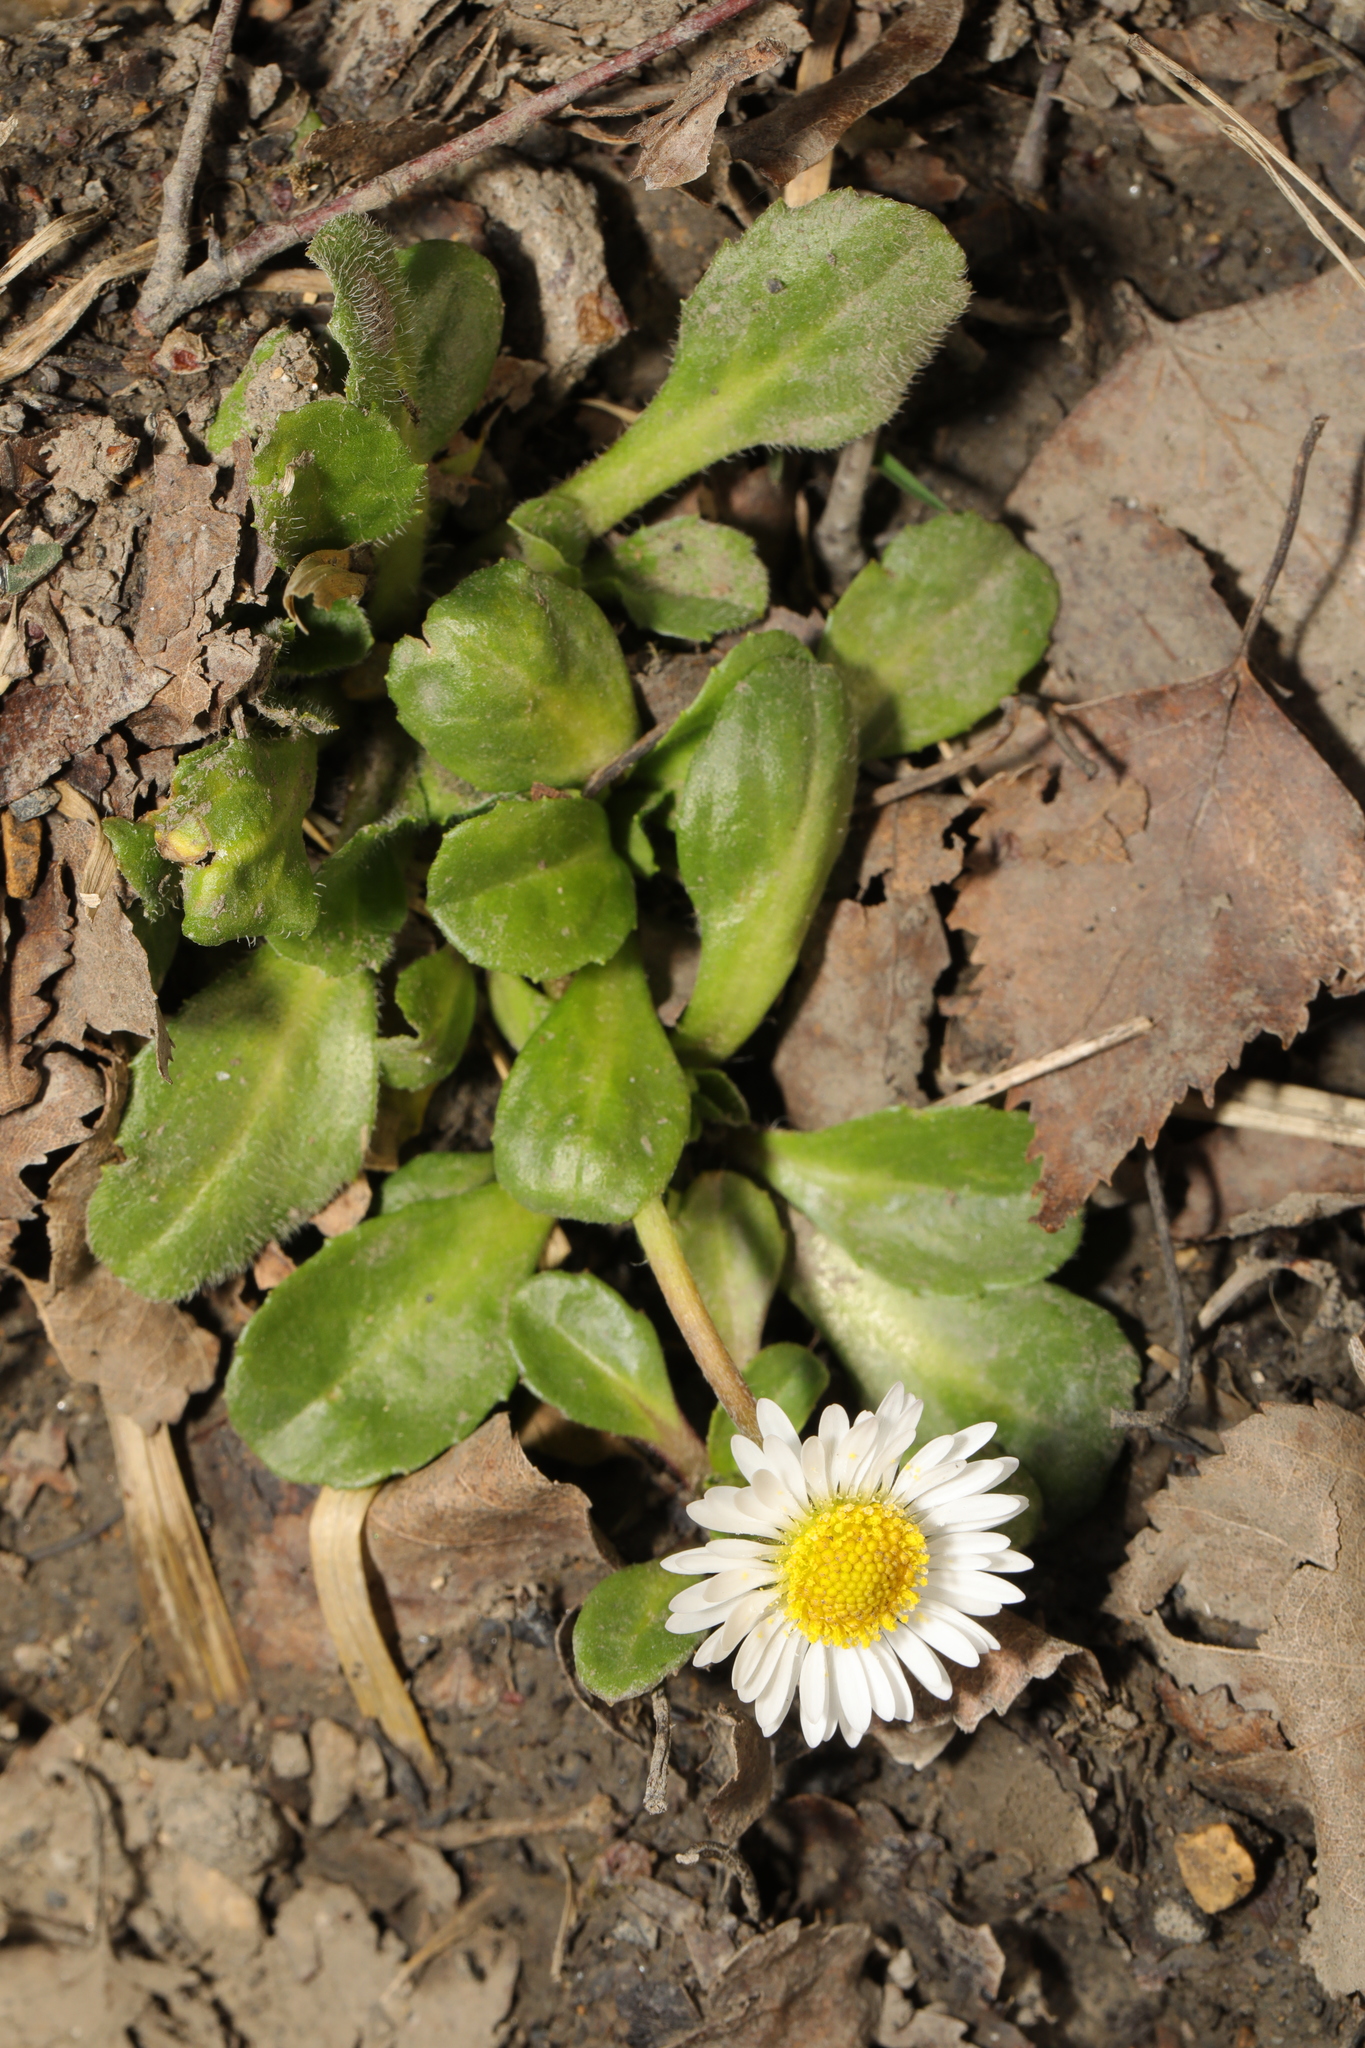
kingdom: Plantae
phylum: Tracheophyta
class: Magnoliopsida
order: Asterales
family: Asteraceae
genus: Bellis
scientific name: Bellis perennis
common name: Lawndaisy
